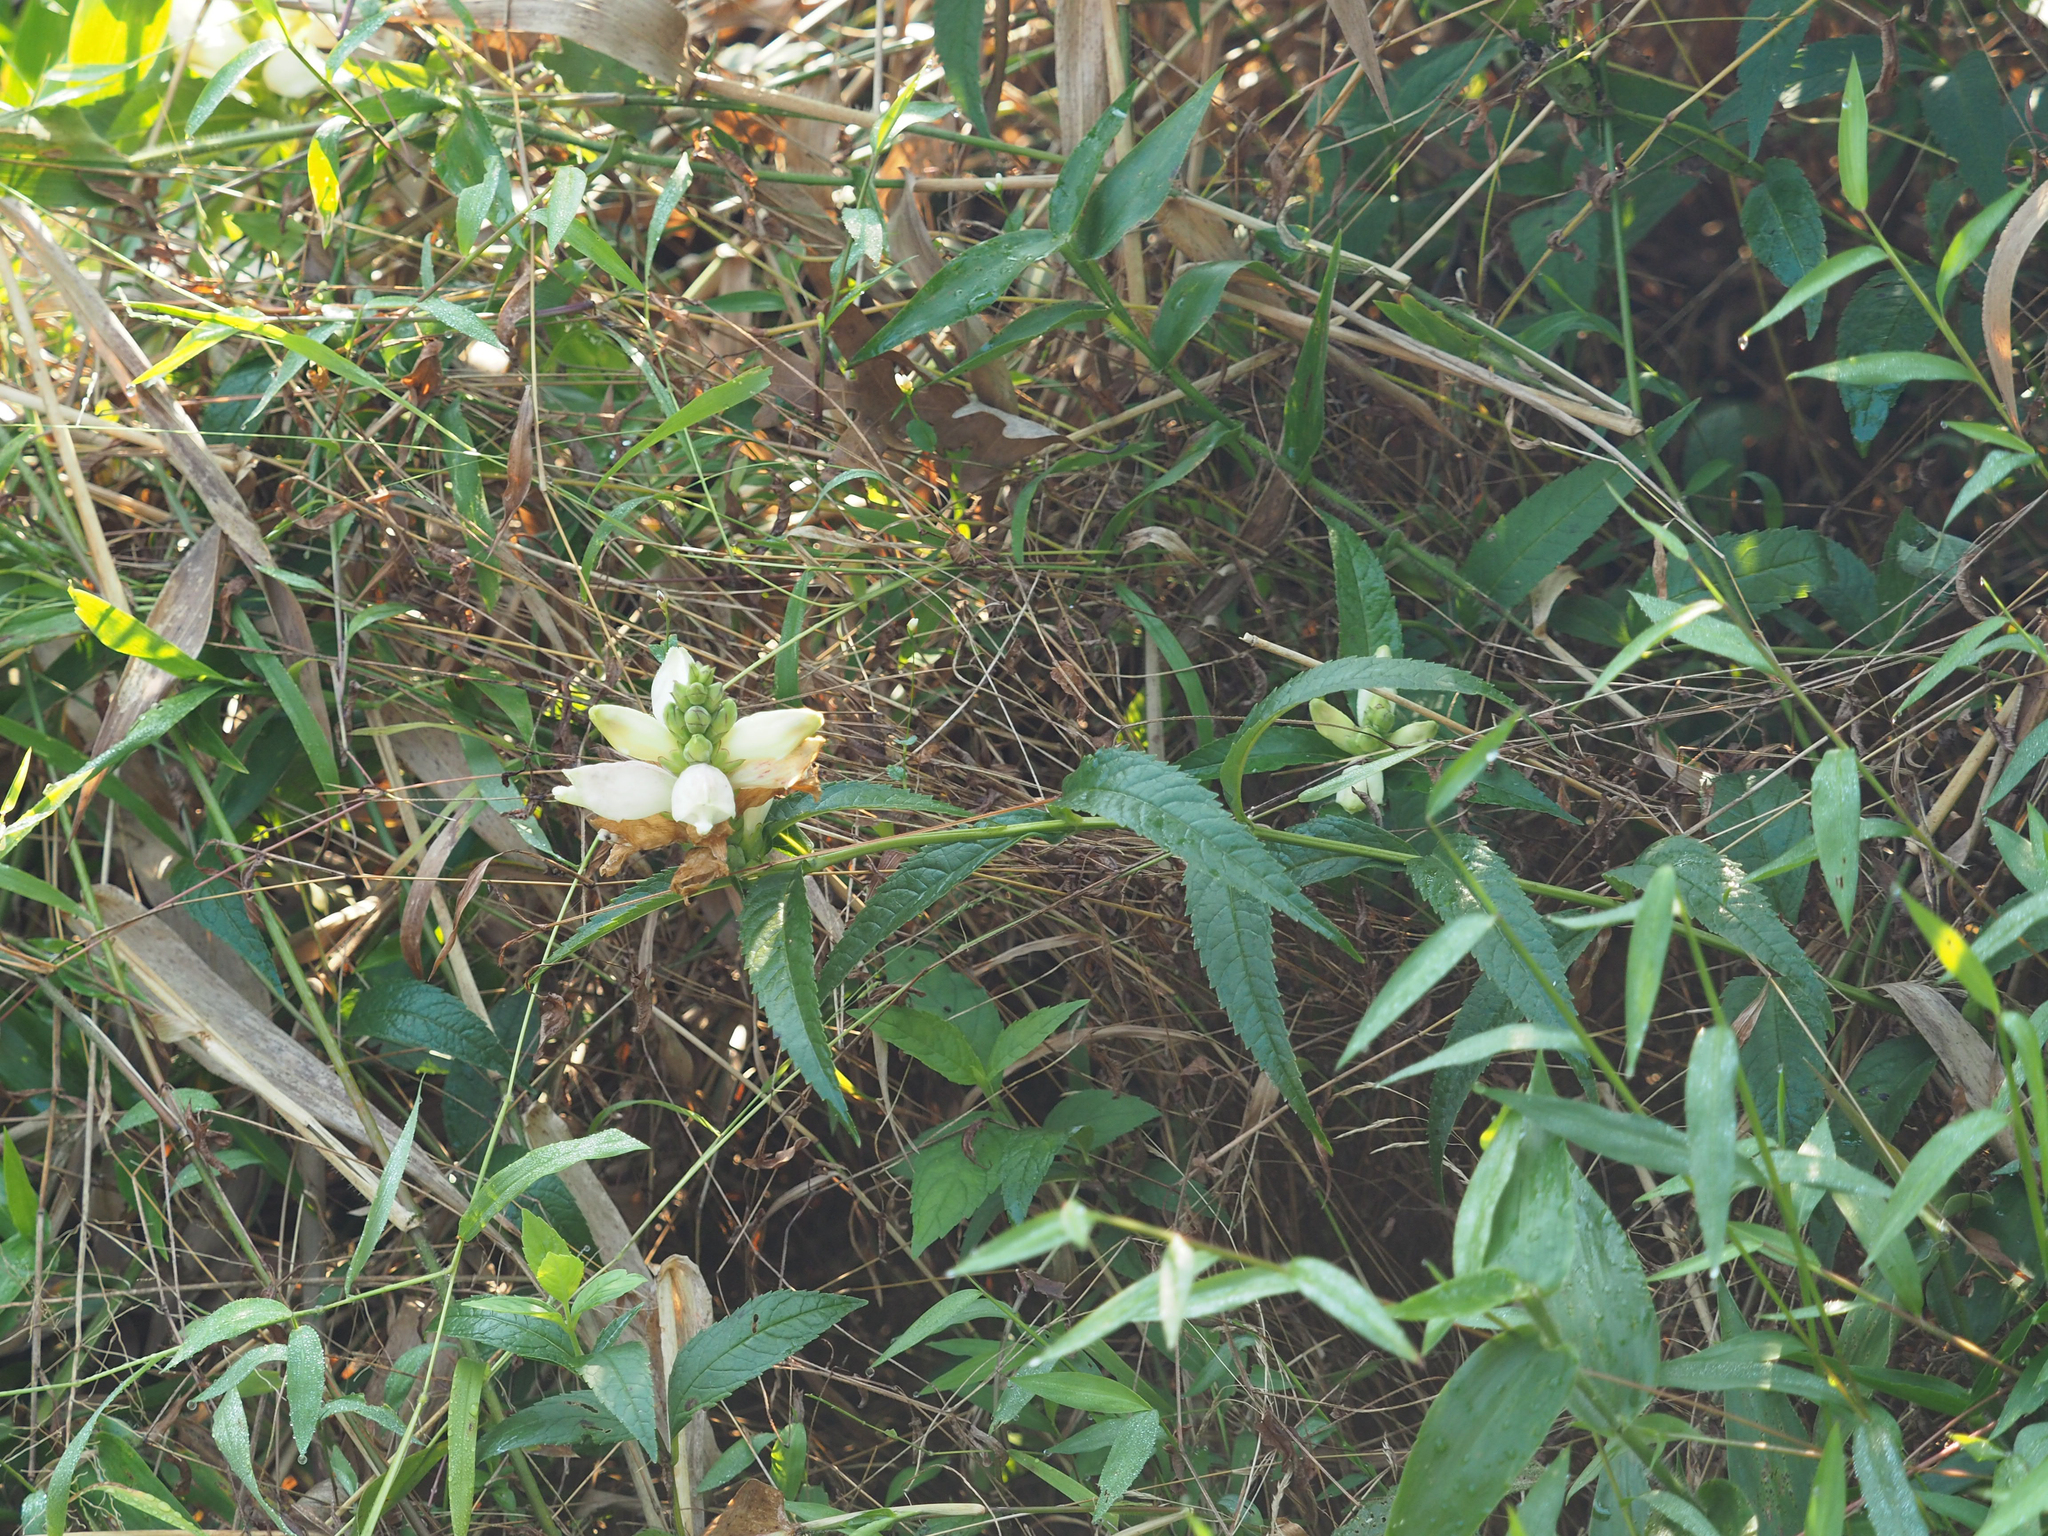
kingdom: Plantae
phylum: Tracheophyta
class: Magnoliopsida
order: Lamiales
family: Plantaginaceae
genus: Chelone
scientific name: Chelone glabra
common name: Snakehead
